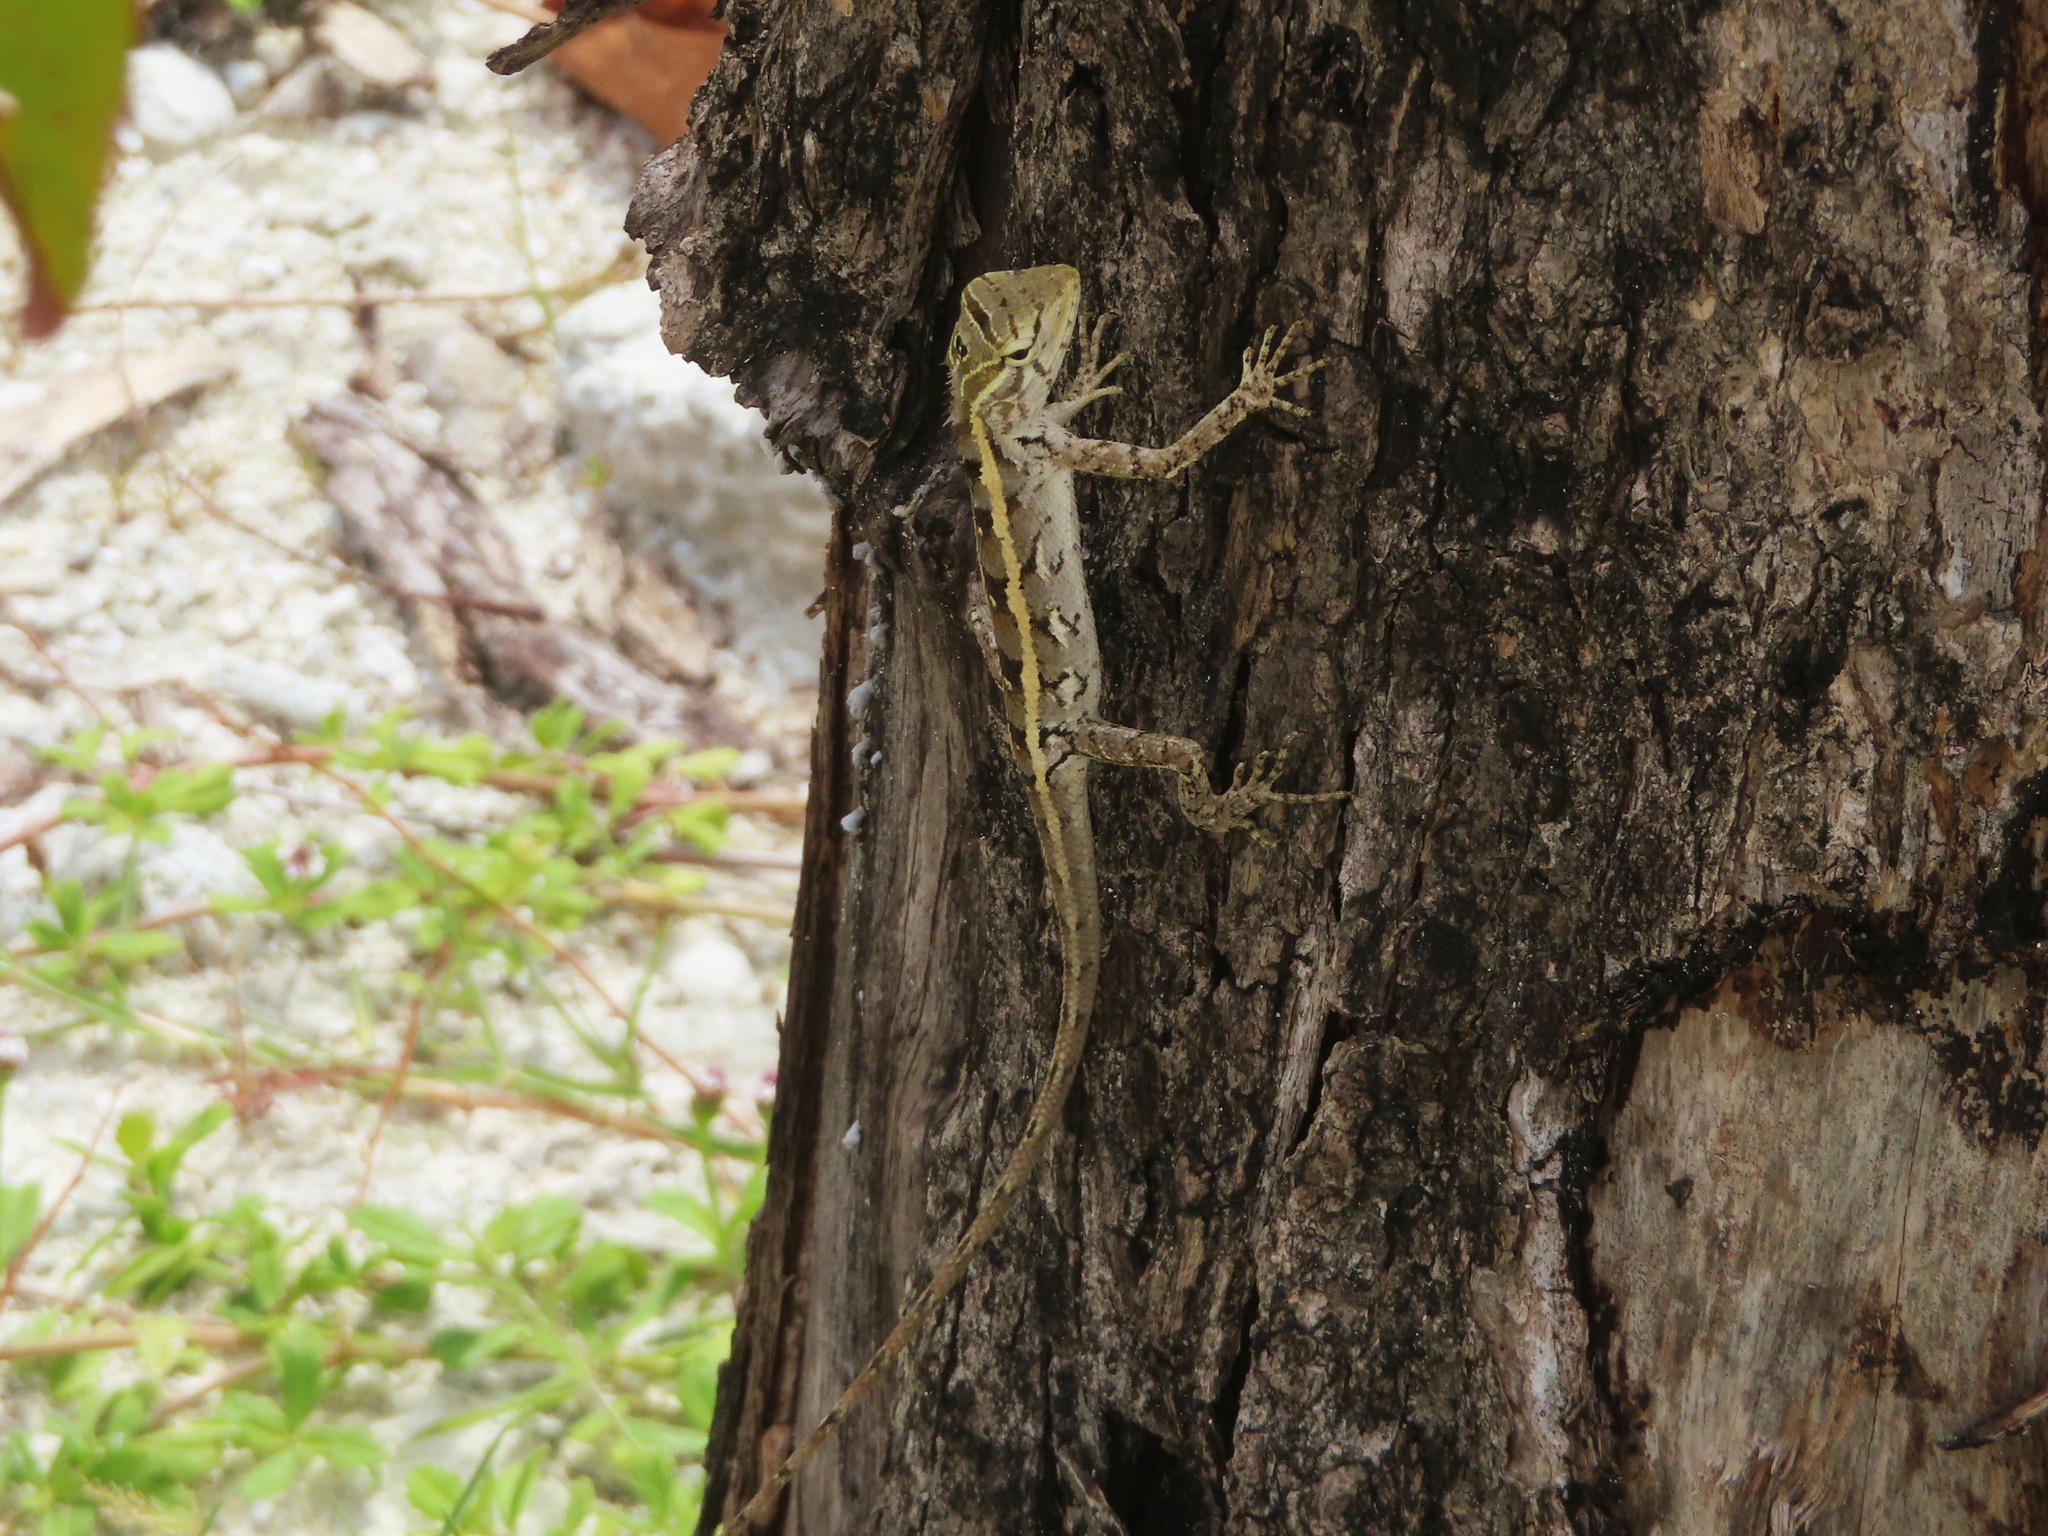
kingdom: Animalia
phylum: Chordata
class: Squamata
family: Agamidae
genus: Calotes
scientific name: Calotes versicolor
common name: Oriental garden lizard
